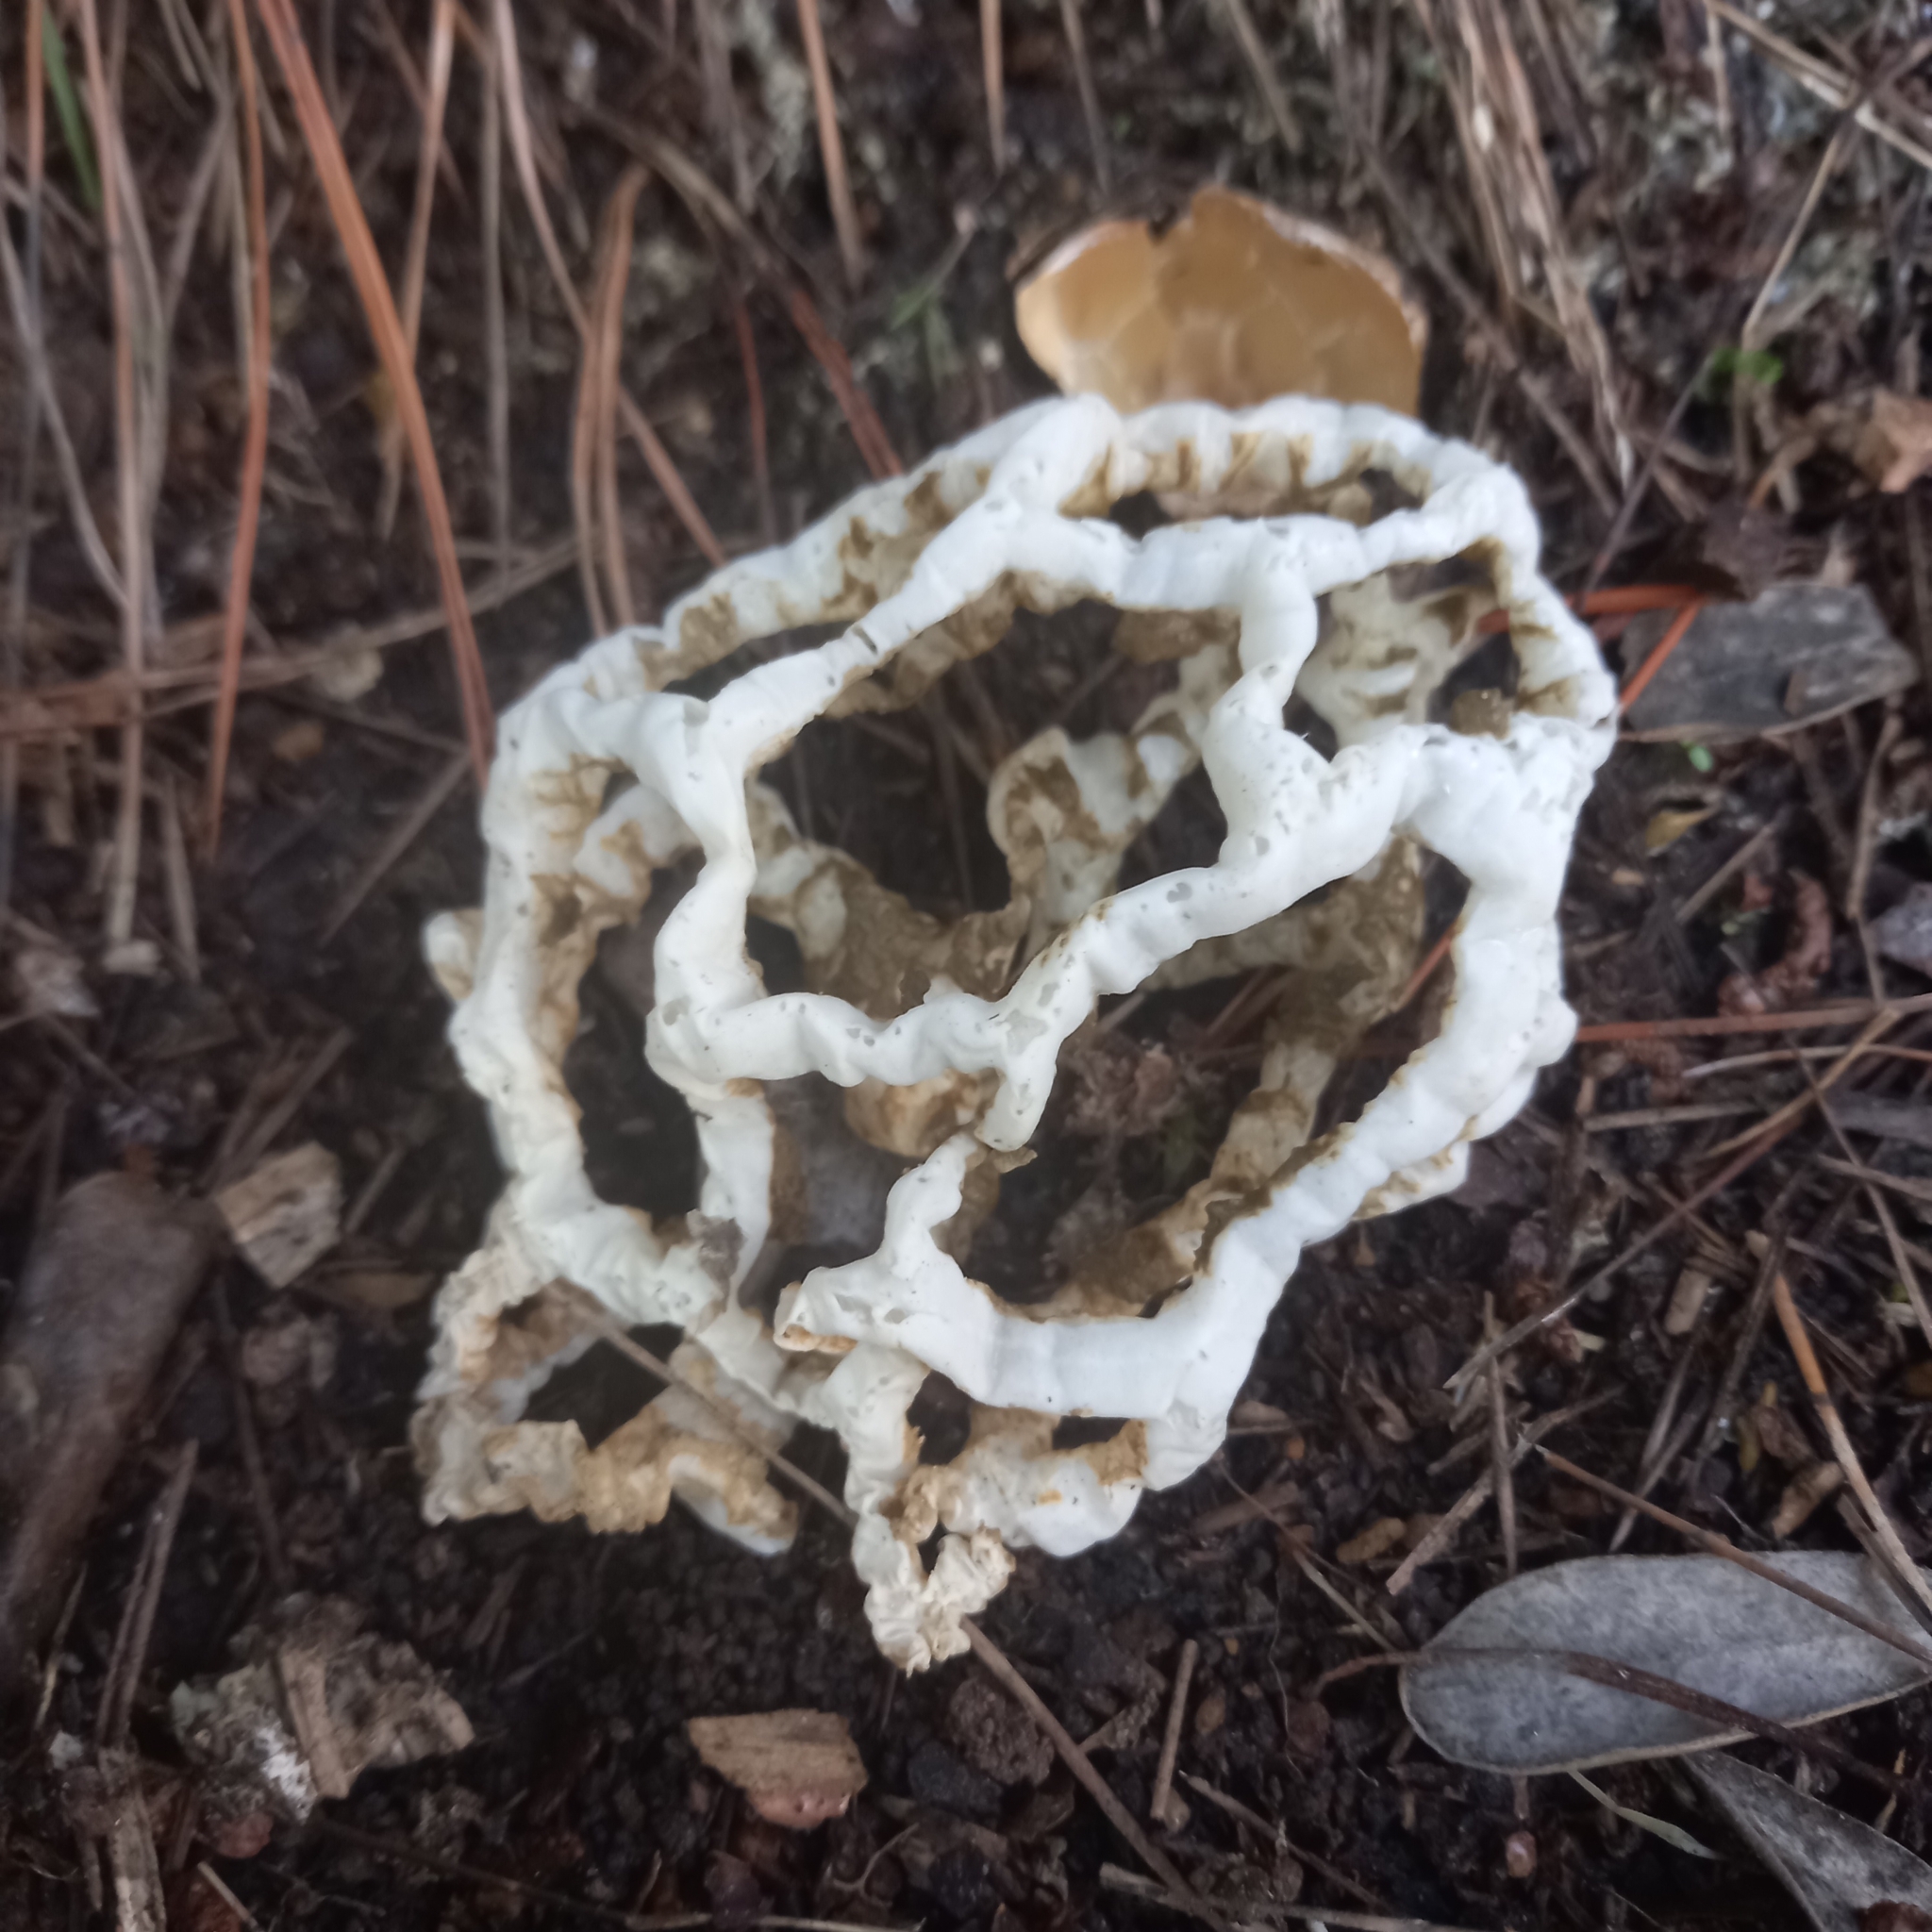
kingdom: Fungi
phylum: Basidiomycota
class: Agaricomycetes
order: Phallales
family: Phallaceae
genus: Ileodictyon
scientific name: Ileodictyon cibarium
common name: Basket fungus
